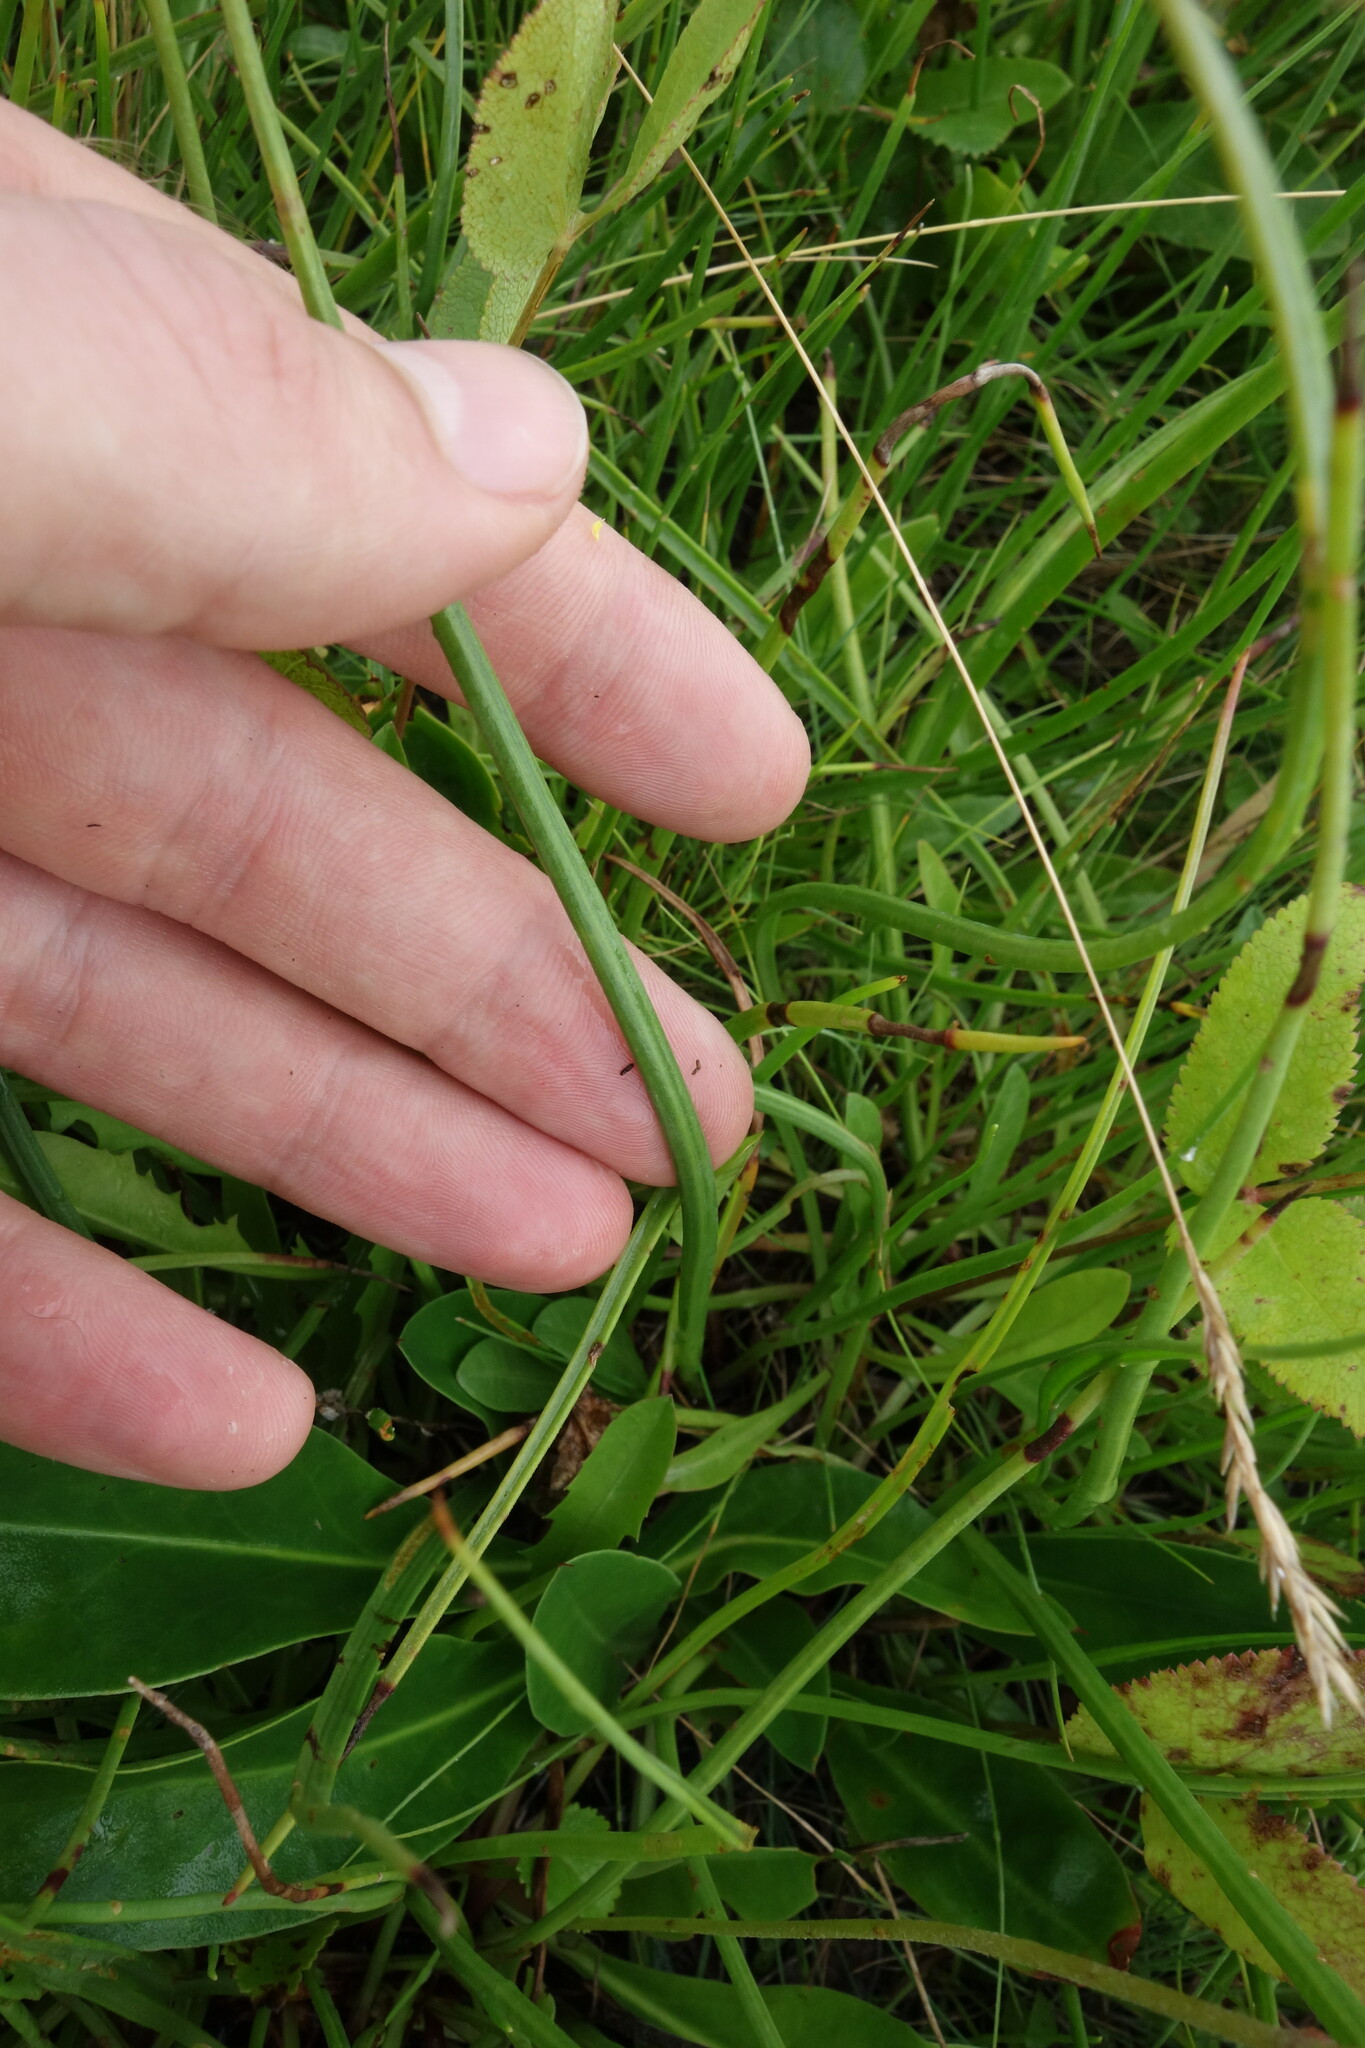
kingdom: Plantae
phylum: Tracheophyta
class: Magnoliopsida
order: Lamiales
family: Plantaginaceae
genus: Plantago
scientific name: Plantago salsa
